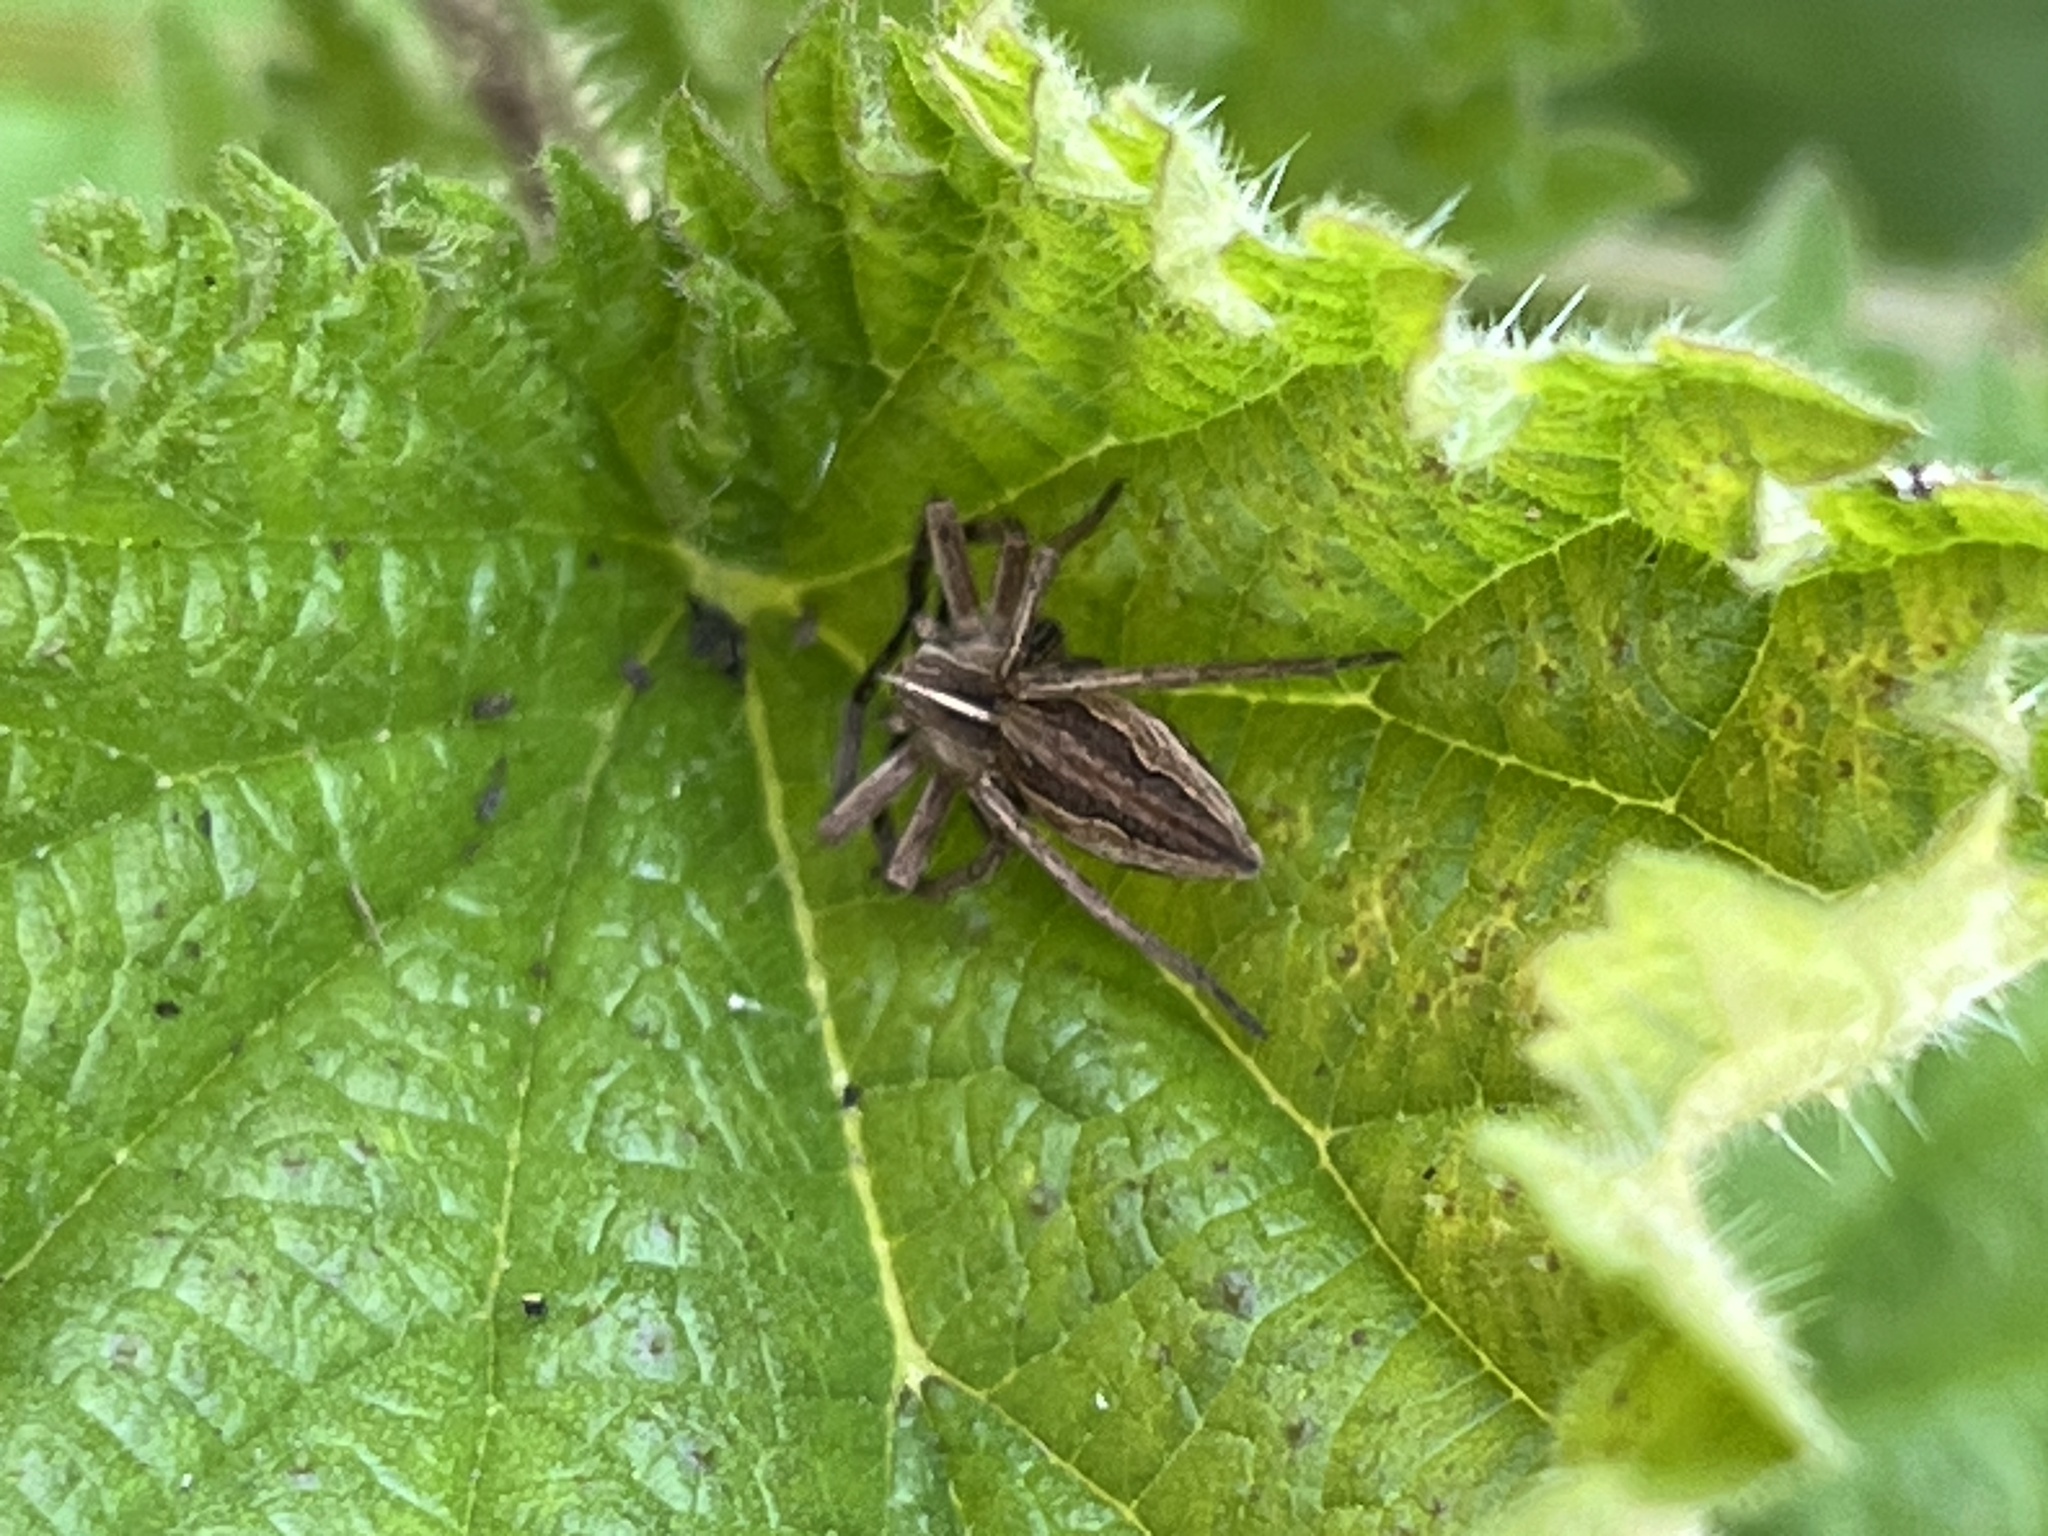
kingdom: Animalia
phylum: Arthropoda
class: Arachnida
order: Araneae
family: Pisauridae
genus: Pisaura
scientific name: Pisaura mirabilis
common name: Tent spider
